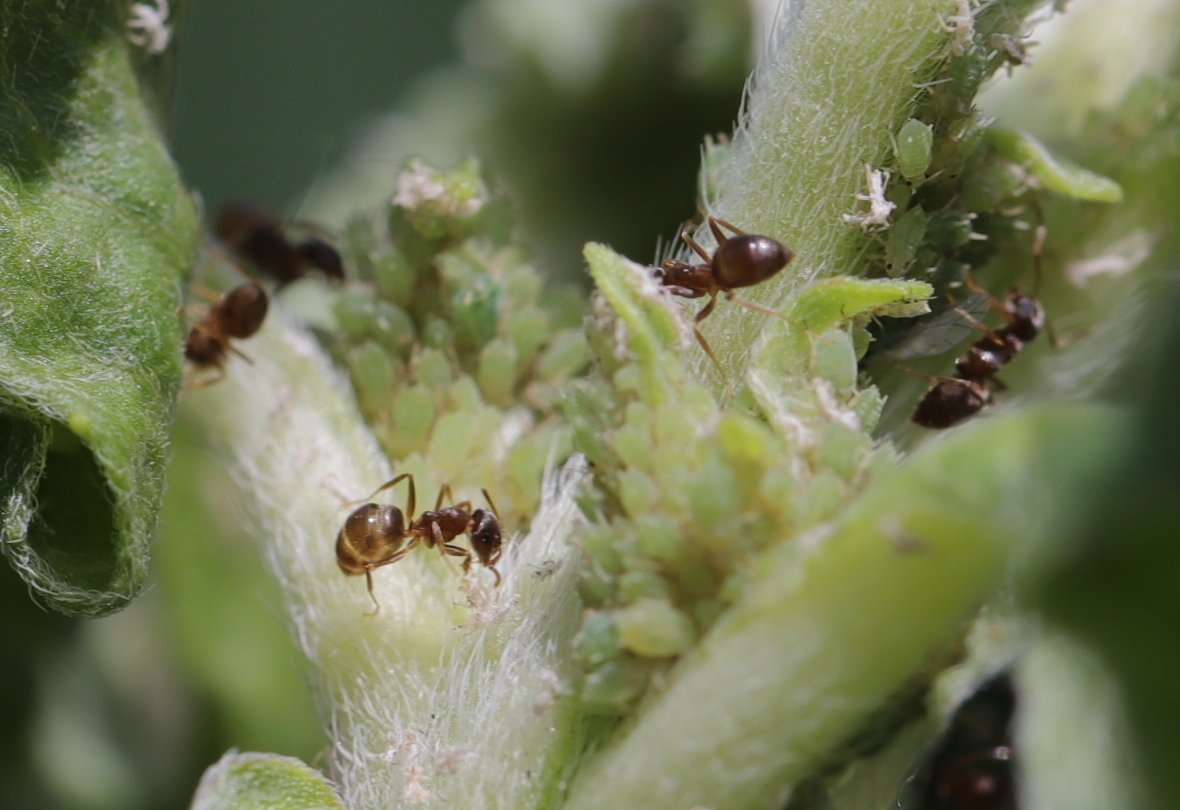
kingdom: Animalia
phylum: Arthropoda
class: Insecta
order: Hymenoptera
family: Formicidae
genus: Lasius
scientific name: Lasius
